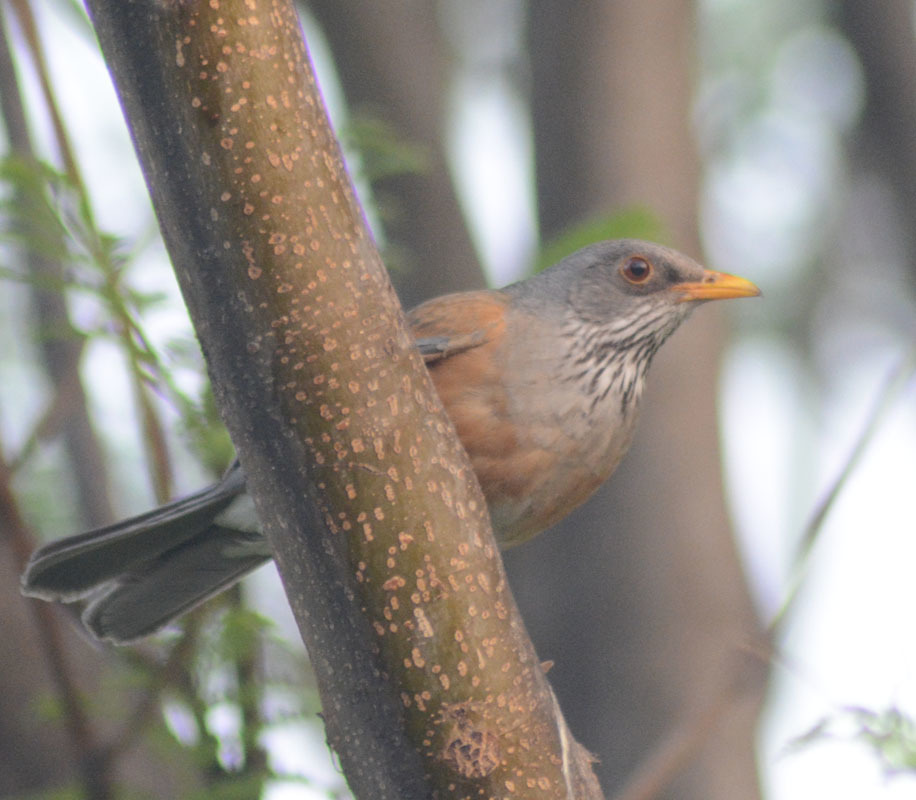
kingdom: Animalia
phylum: Chordata
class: Aves
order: Passeriformes
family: Turdidae
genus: Turdus
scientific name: Turdus rufopalliatus
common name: Rufous-backed robin
